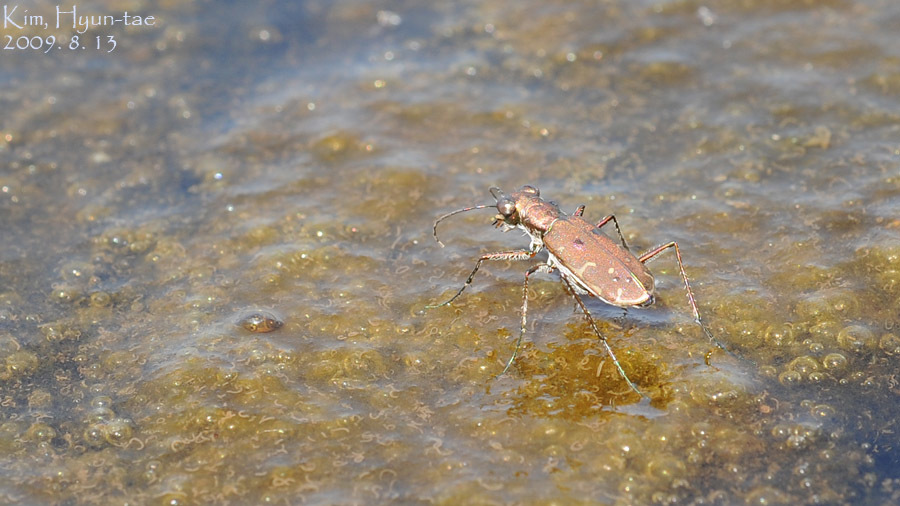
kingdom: Animalia
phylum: Arthropoda
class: Insecta
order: Coleoptera
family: Carabidae
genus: Myriochila
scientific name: Myriochila specularis
